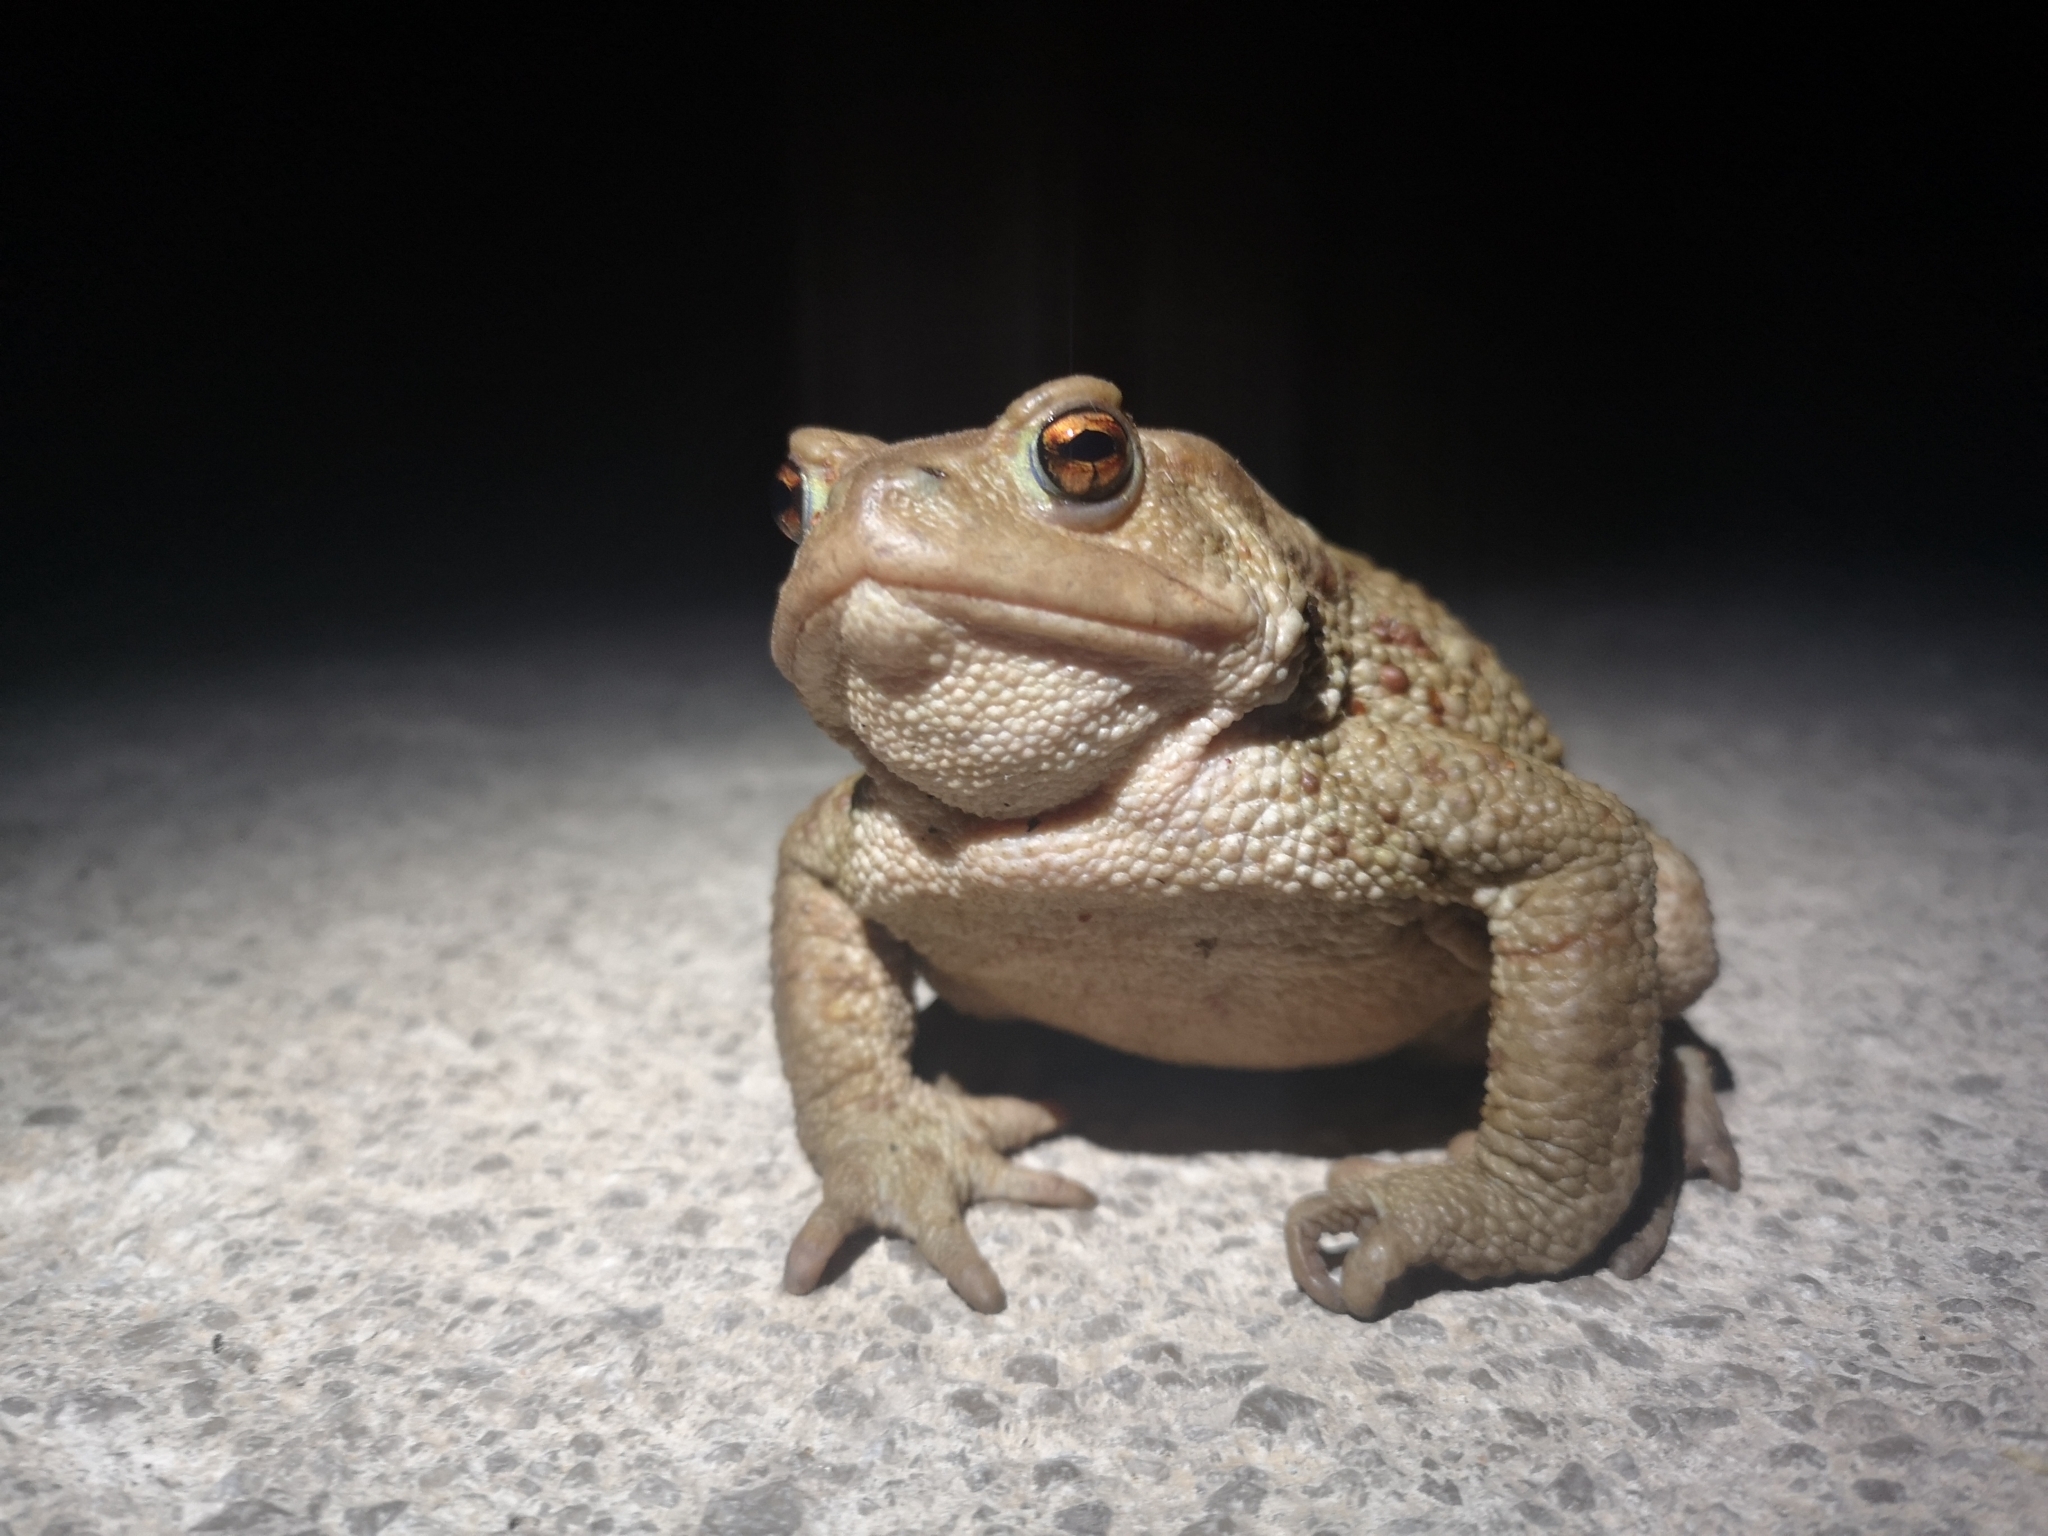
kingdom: Animalia
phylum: Chordata
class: Amphibia
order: Anura
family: Bufonidae
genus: Bufo
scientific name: Bufo bufo
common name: Common toad
